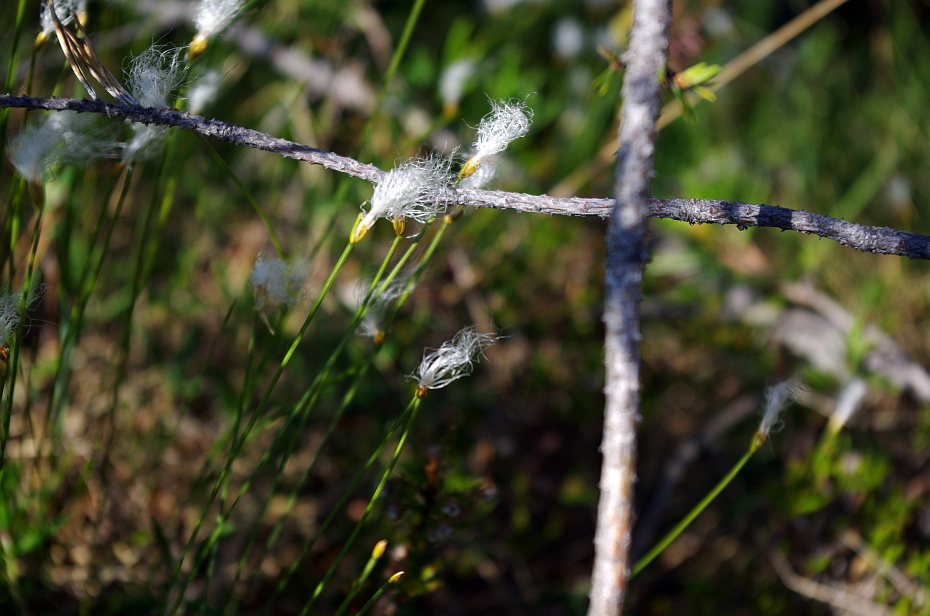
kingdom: Plantae
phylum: Tracheophyta
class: Liliopsida
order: Poales
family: Cyperaceae
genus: Trichophorum
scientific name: Trichophorum alpinum
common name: Alpine bulrush
